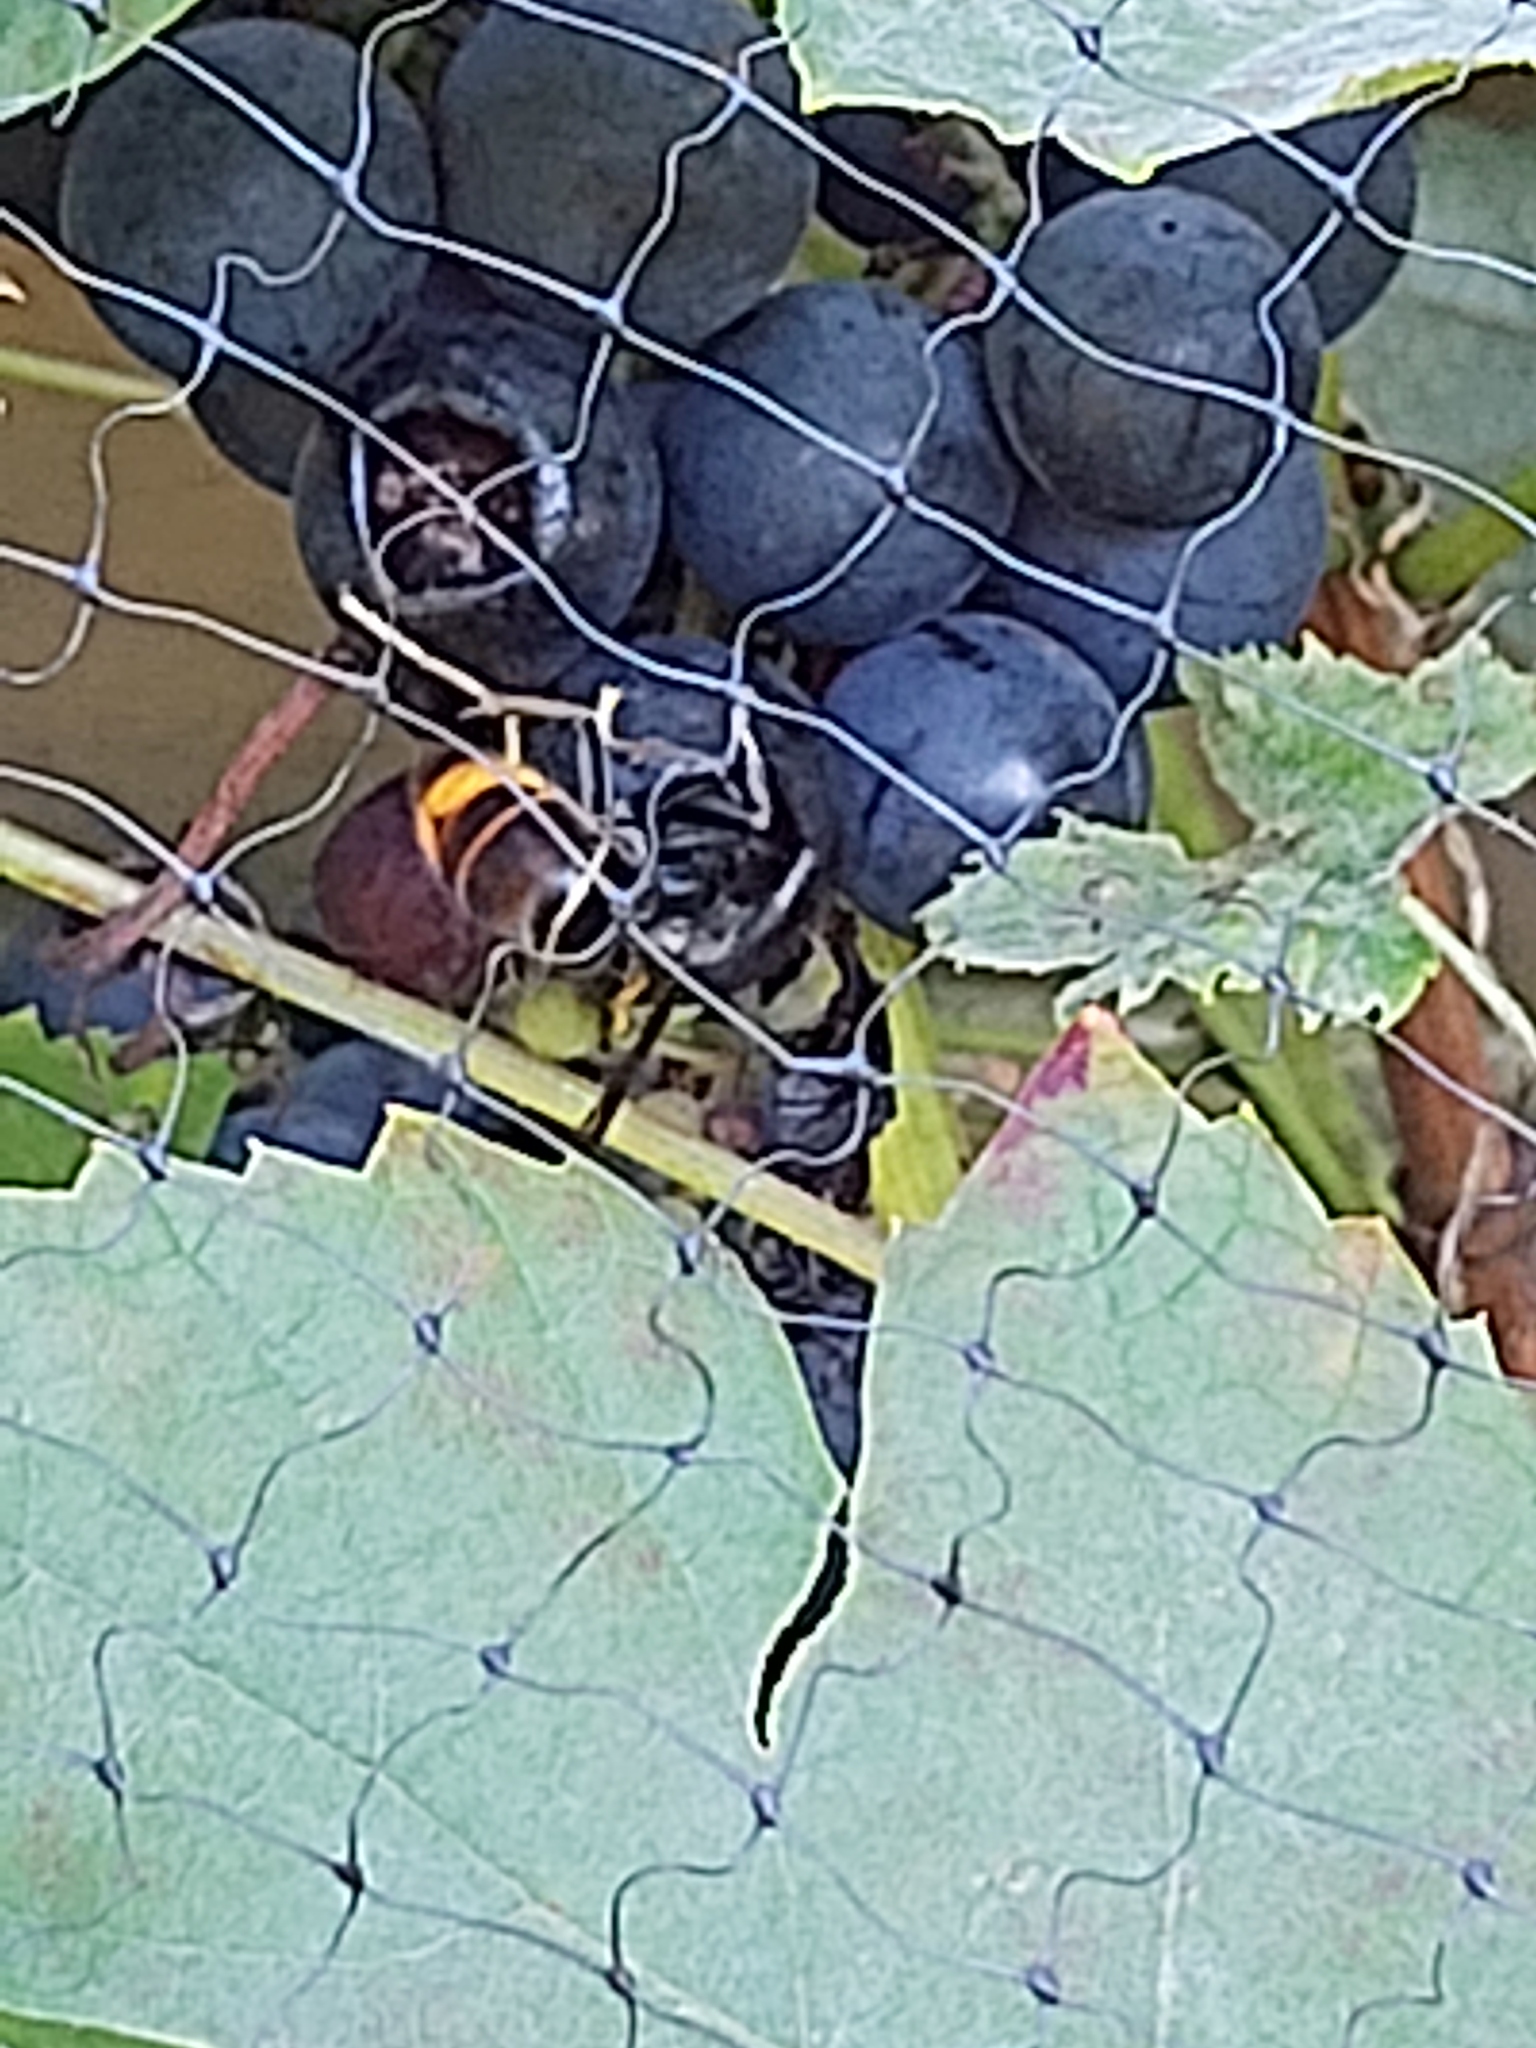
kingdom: Animalia
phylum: Arthropoda
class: Insecta
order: Hymenoptera
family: Vespidae
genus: Vespa
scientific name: Vespa velutina
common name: Asian hornet
